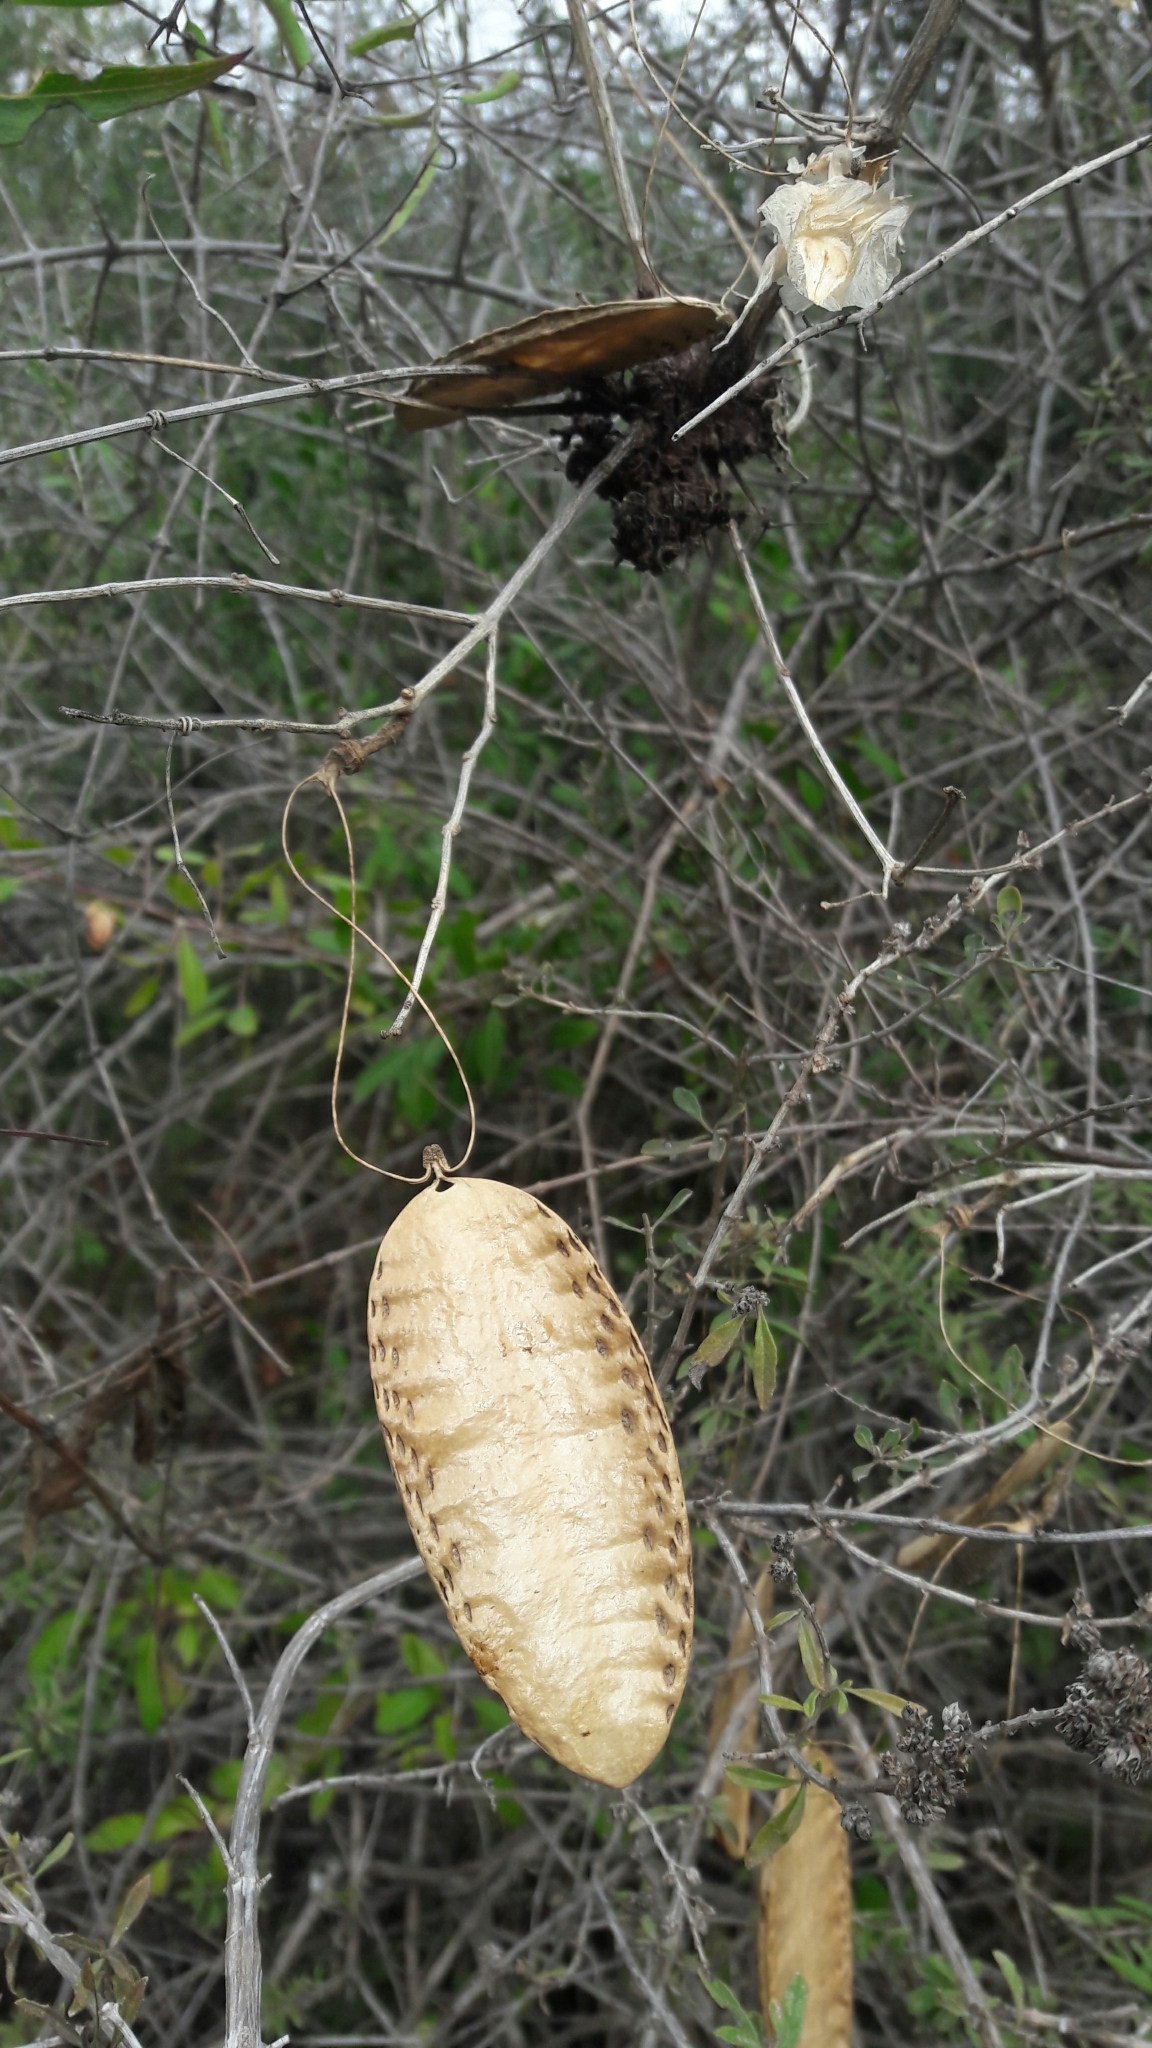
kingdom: Plantae
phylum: Tracheophyta
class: Magnoliopsida
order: Lamiales
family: Bignoniaceae
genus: Amphilophium
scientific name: Amphilophium carolinae
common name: Monkey's-comb
